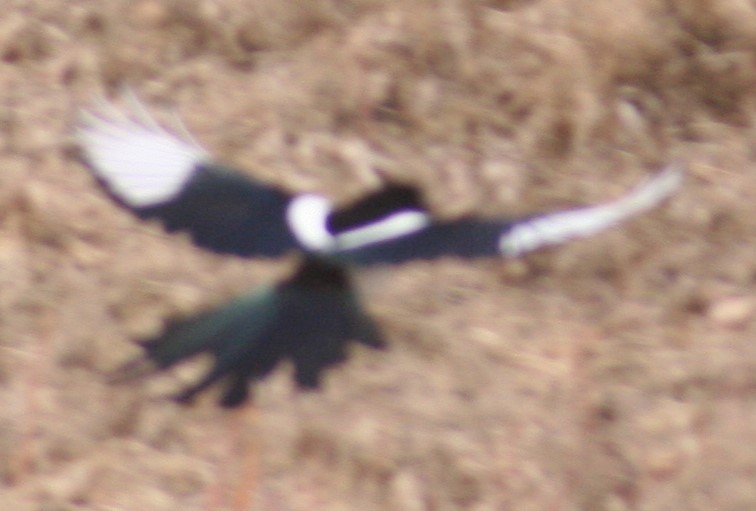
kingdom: Animalia
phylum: Chordata
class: Aves
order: Passeriformes
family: Corvidae
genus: Pica
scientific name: Pica hudsonia
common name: Black-billed magpie
